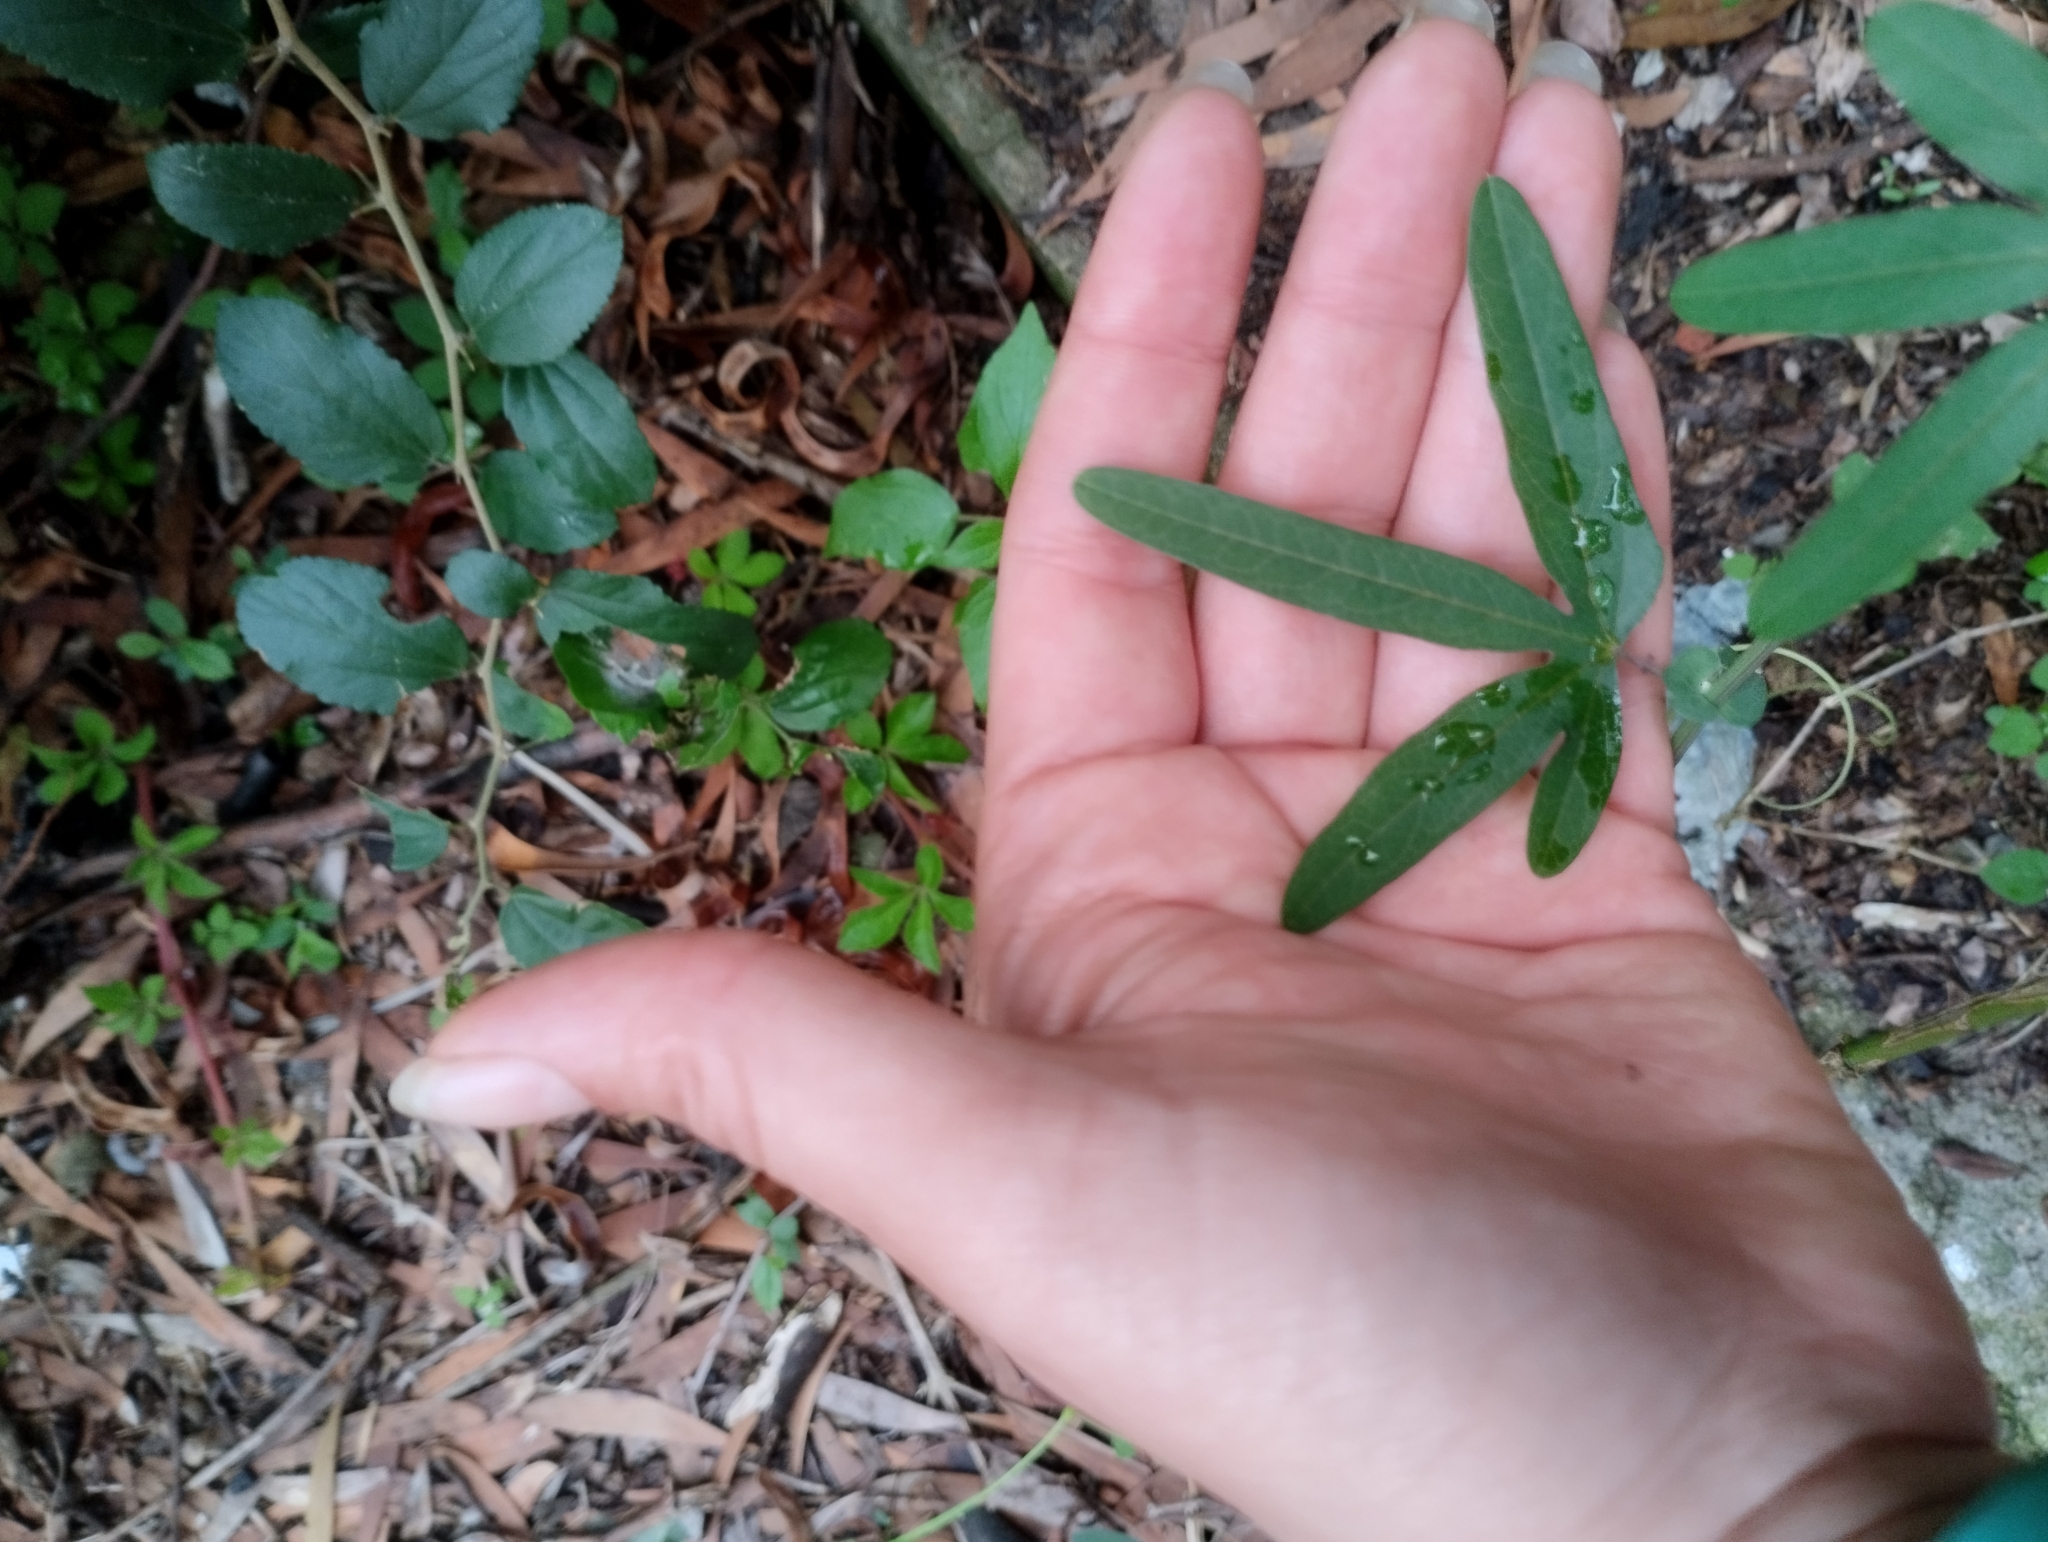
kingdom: Plantae
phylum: Tracheophyta
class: Magnoliopsida
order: Malpighiales
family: Passifloraceae
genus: Passiflora
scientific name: Passiflora caerulea
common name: Blue passionflower
